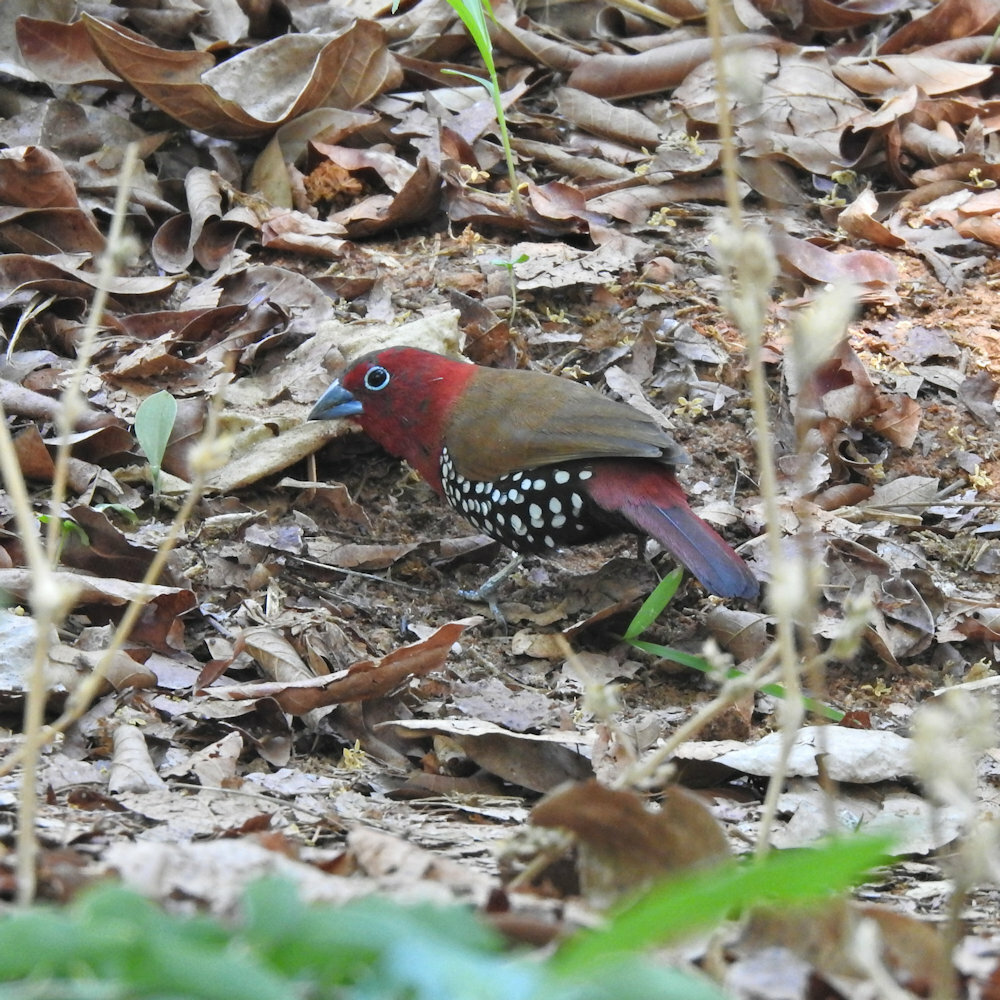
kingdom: Animalia
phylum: Chordata
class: Aves
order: Passeriformes
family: Estrildidae
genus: Hypargos
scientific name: Hypargos niveoguttatus
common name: Red-throated twinspot
